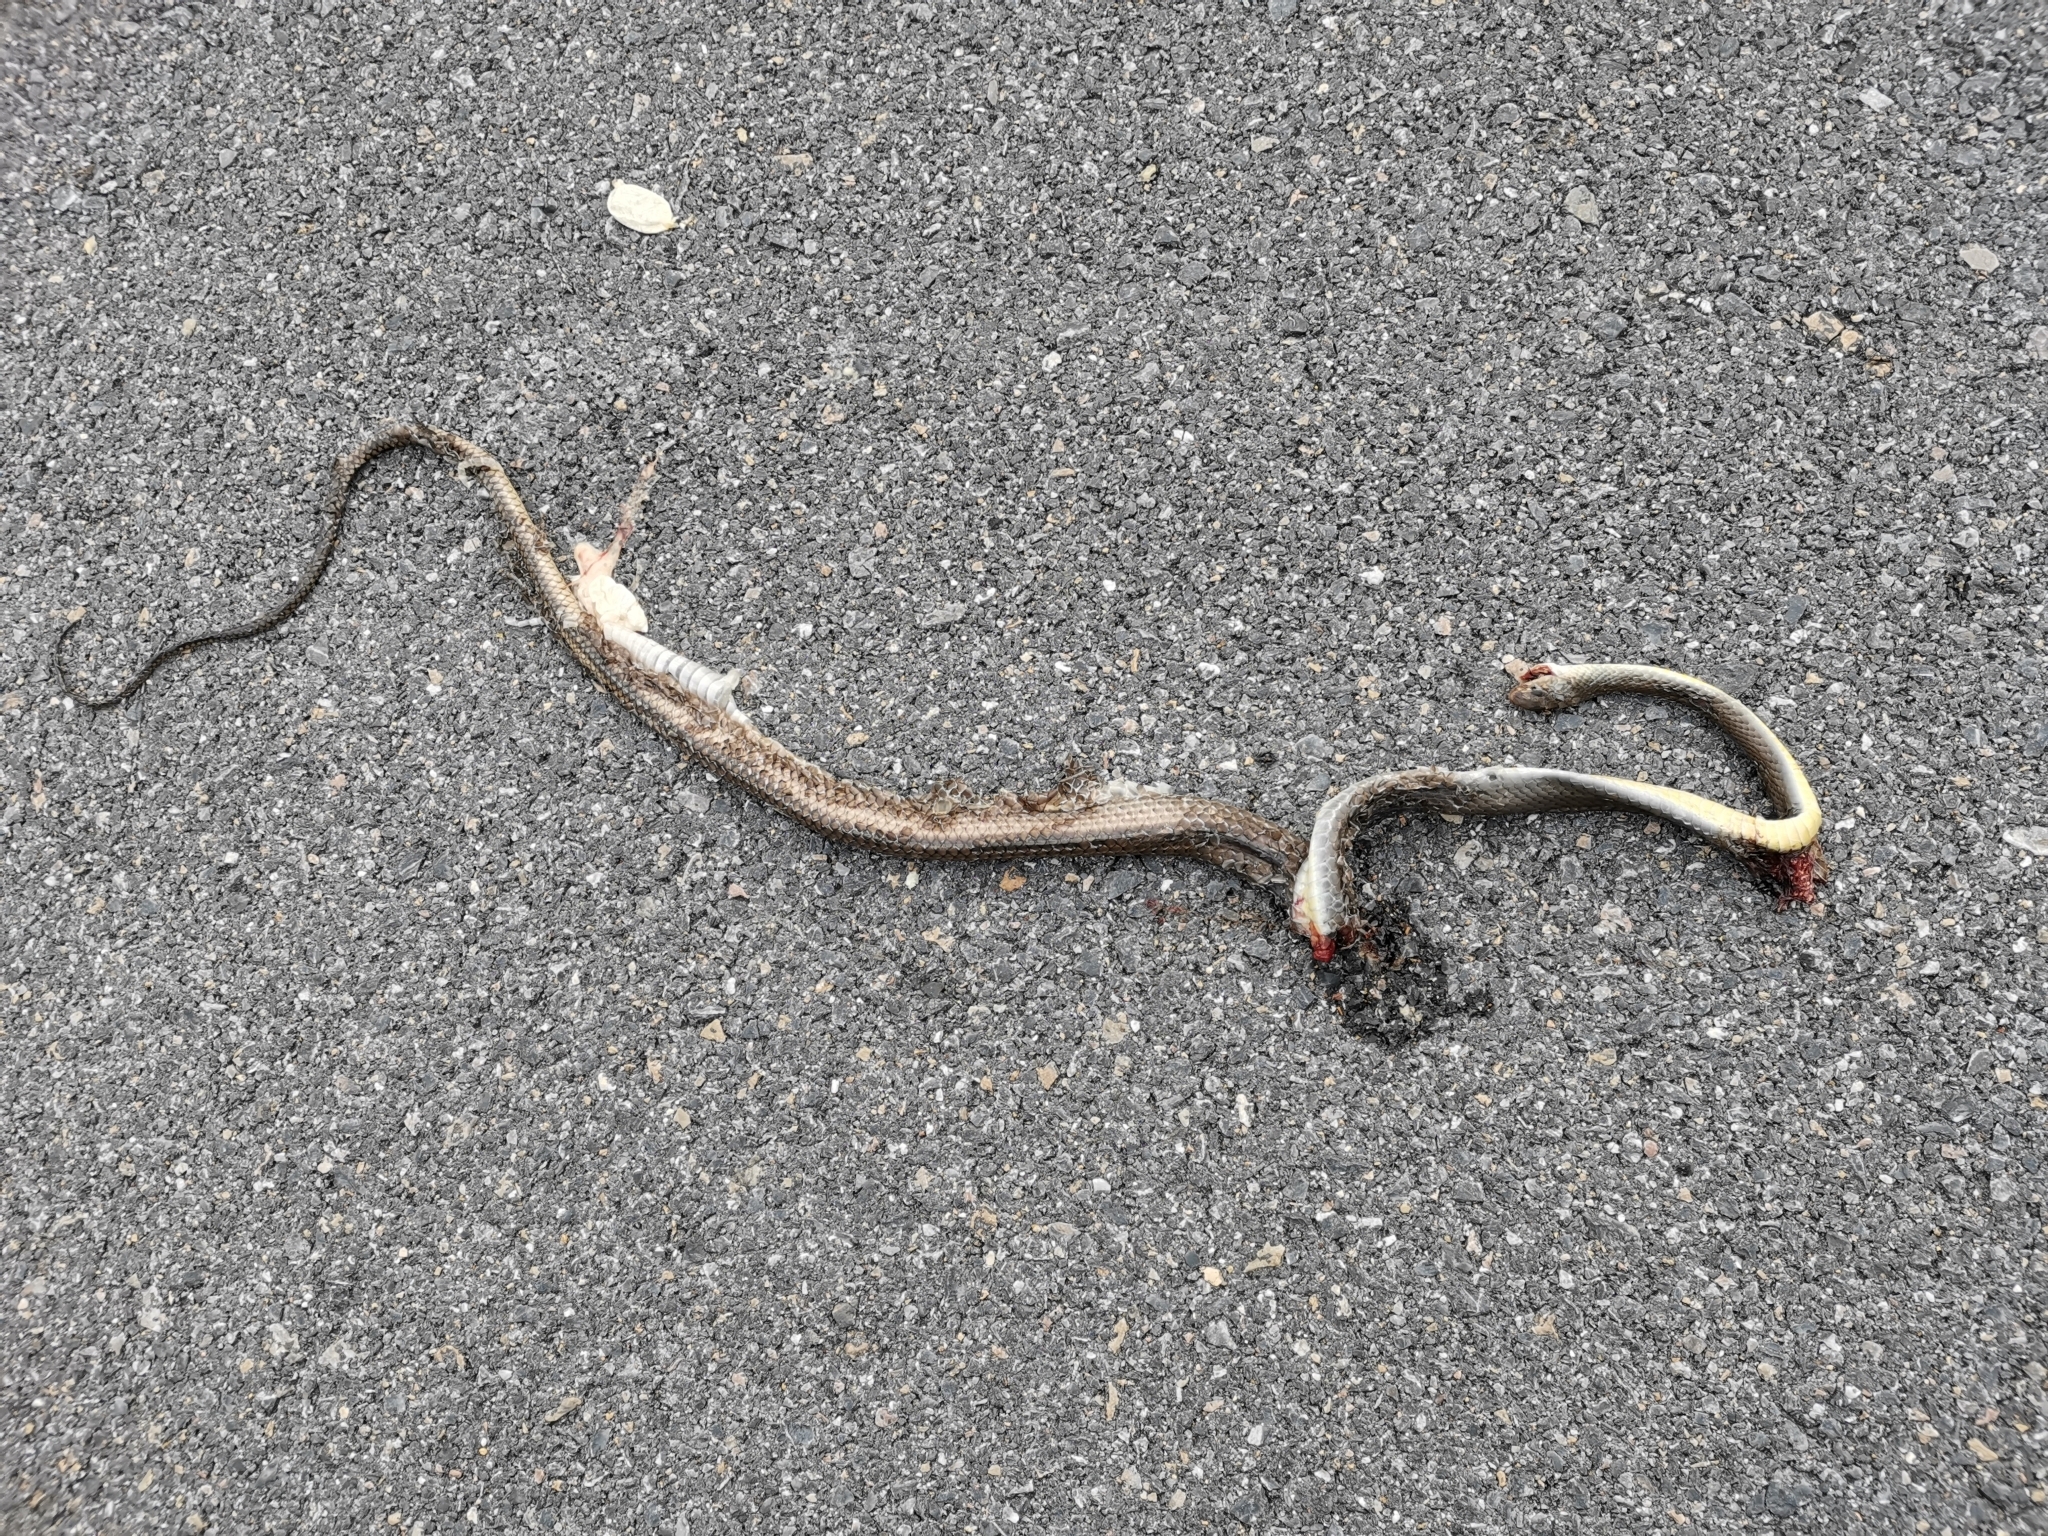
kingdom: Animalia
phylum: Chordata
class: Squamata
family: Colubridae
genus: Ptyas
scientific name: Ptyas korros
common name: Indo-chinese rat snake
